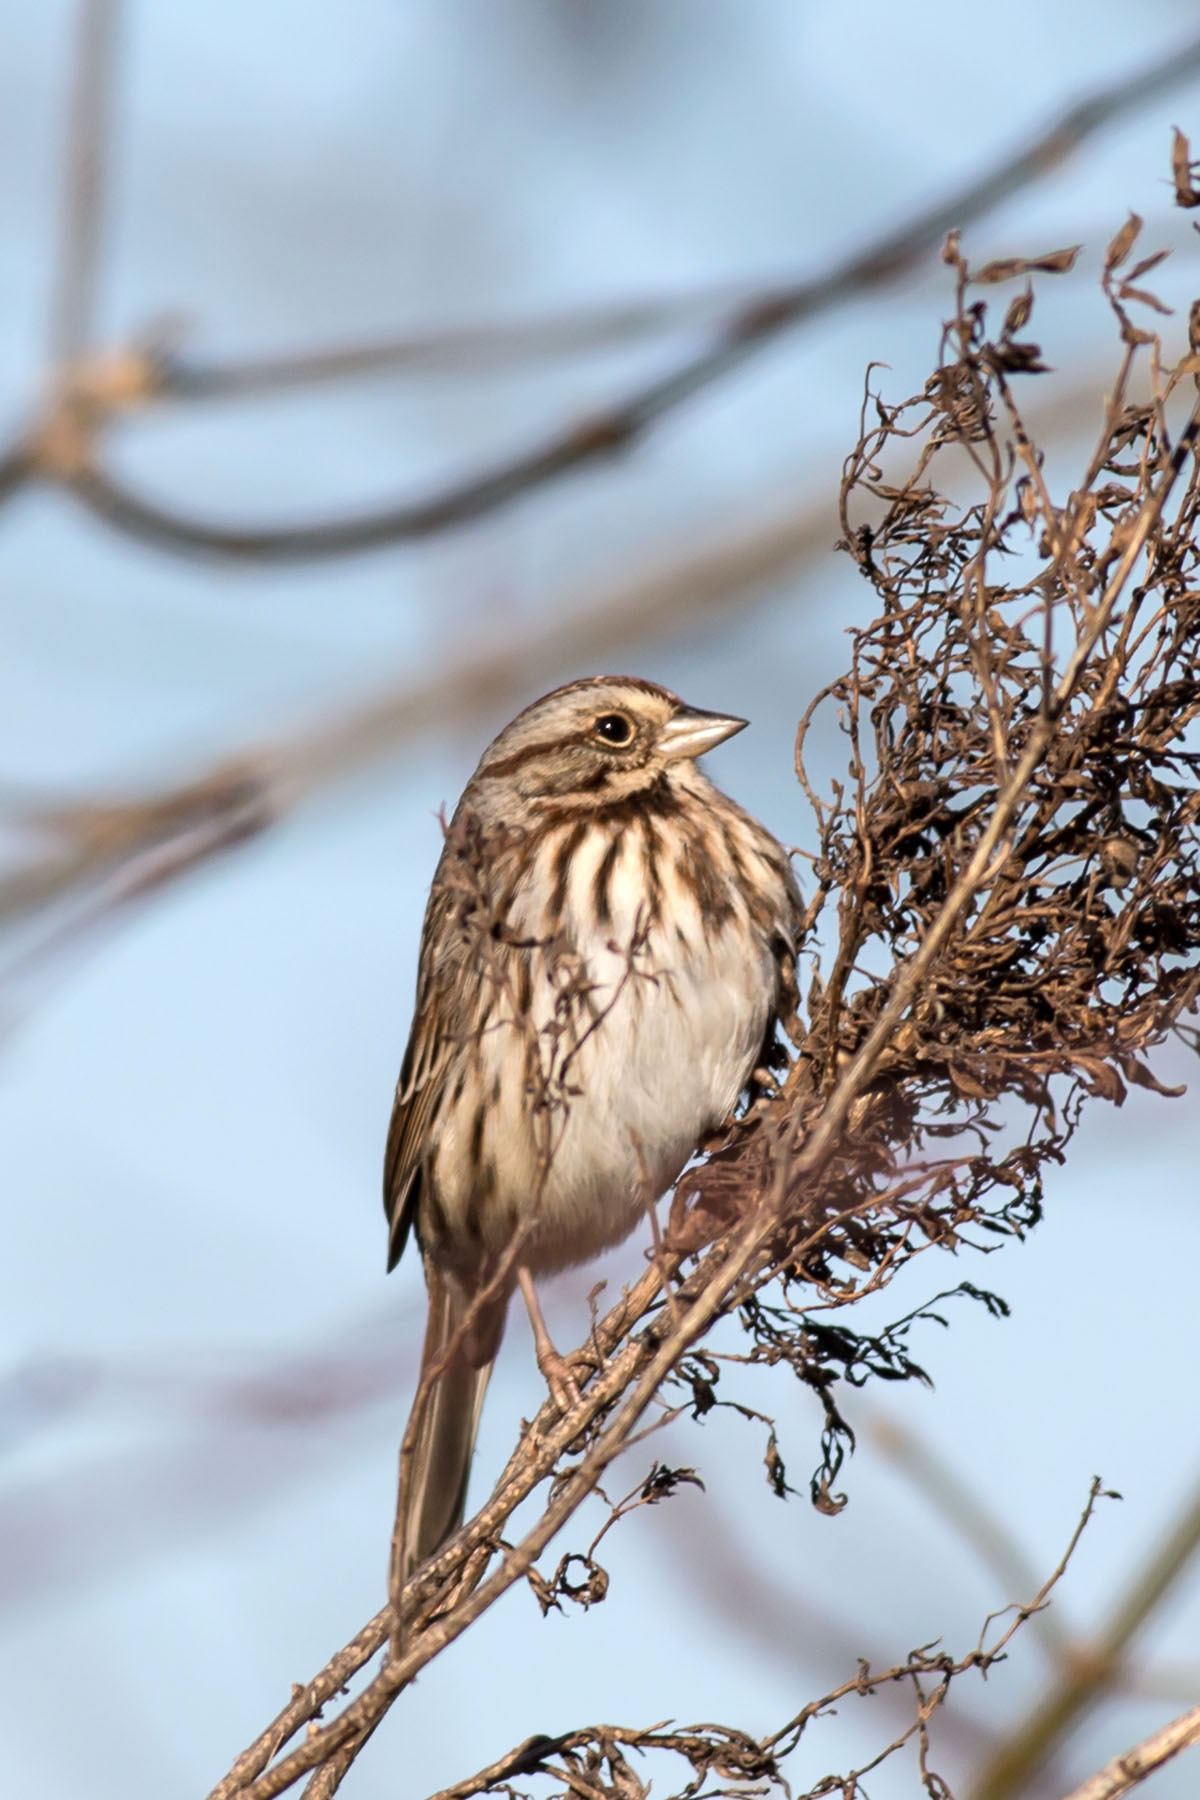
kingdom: Animalia
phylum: Chordata
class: Aves
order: Passeriformes
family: Passerellidae
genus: Melospiza
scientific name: Melospiza melodia
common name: Song sparrow
